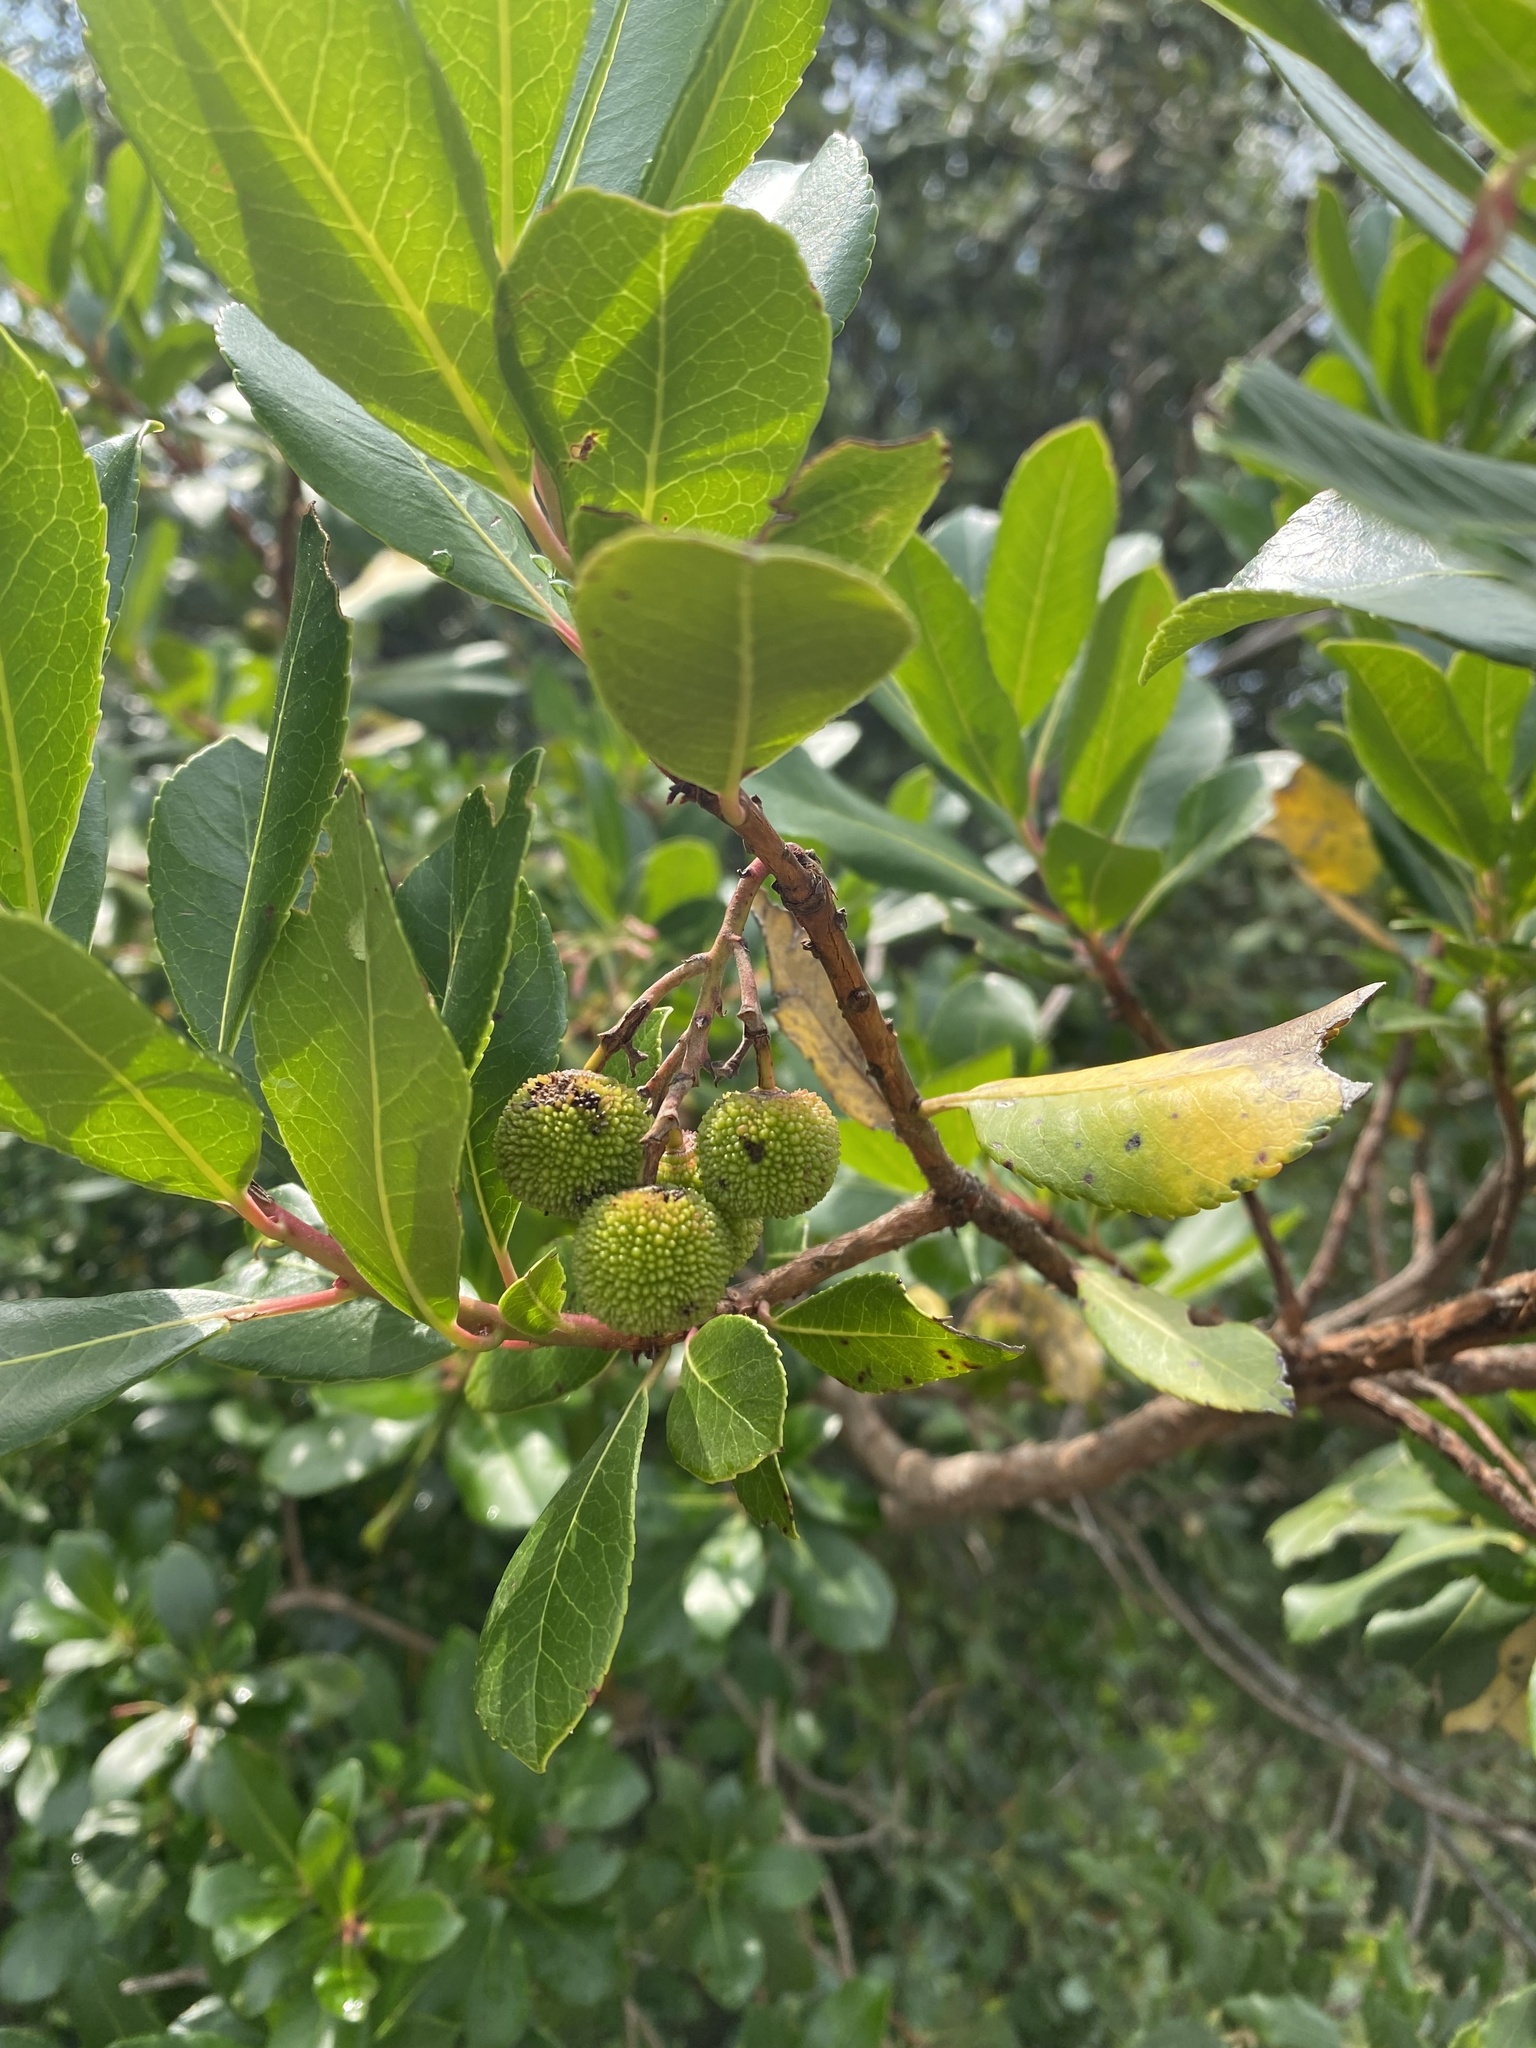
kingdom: Plantae
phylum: Tracheophyta
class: Magnoliopsida
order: Ericales
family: Ericaceae
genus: Arbutus
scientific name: Arbutus unedo
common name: Strawberry-tree
